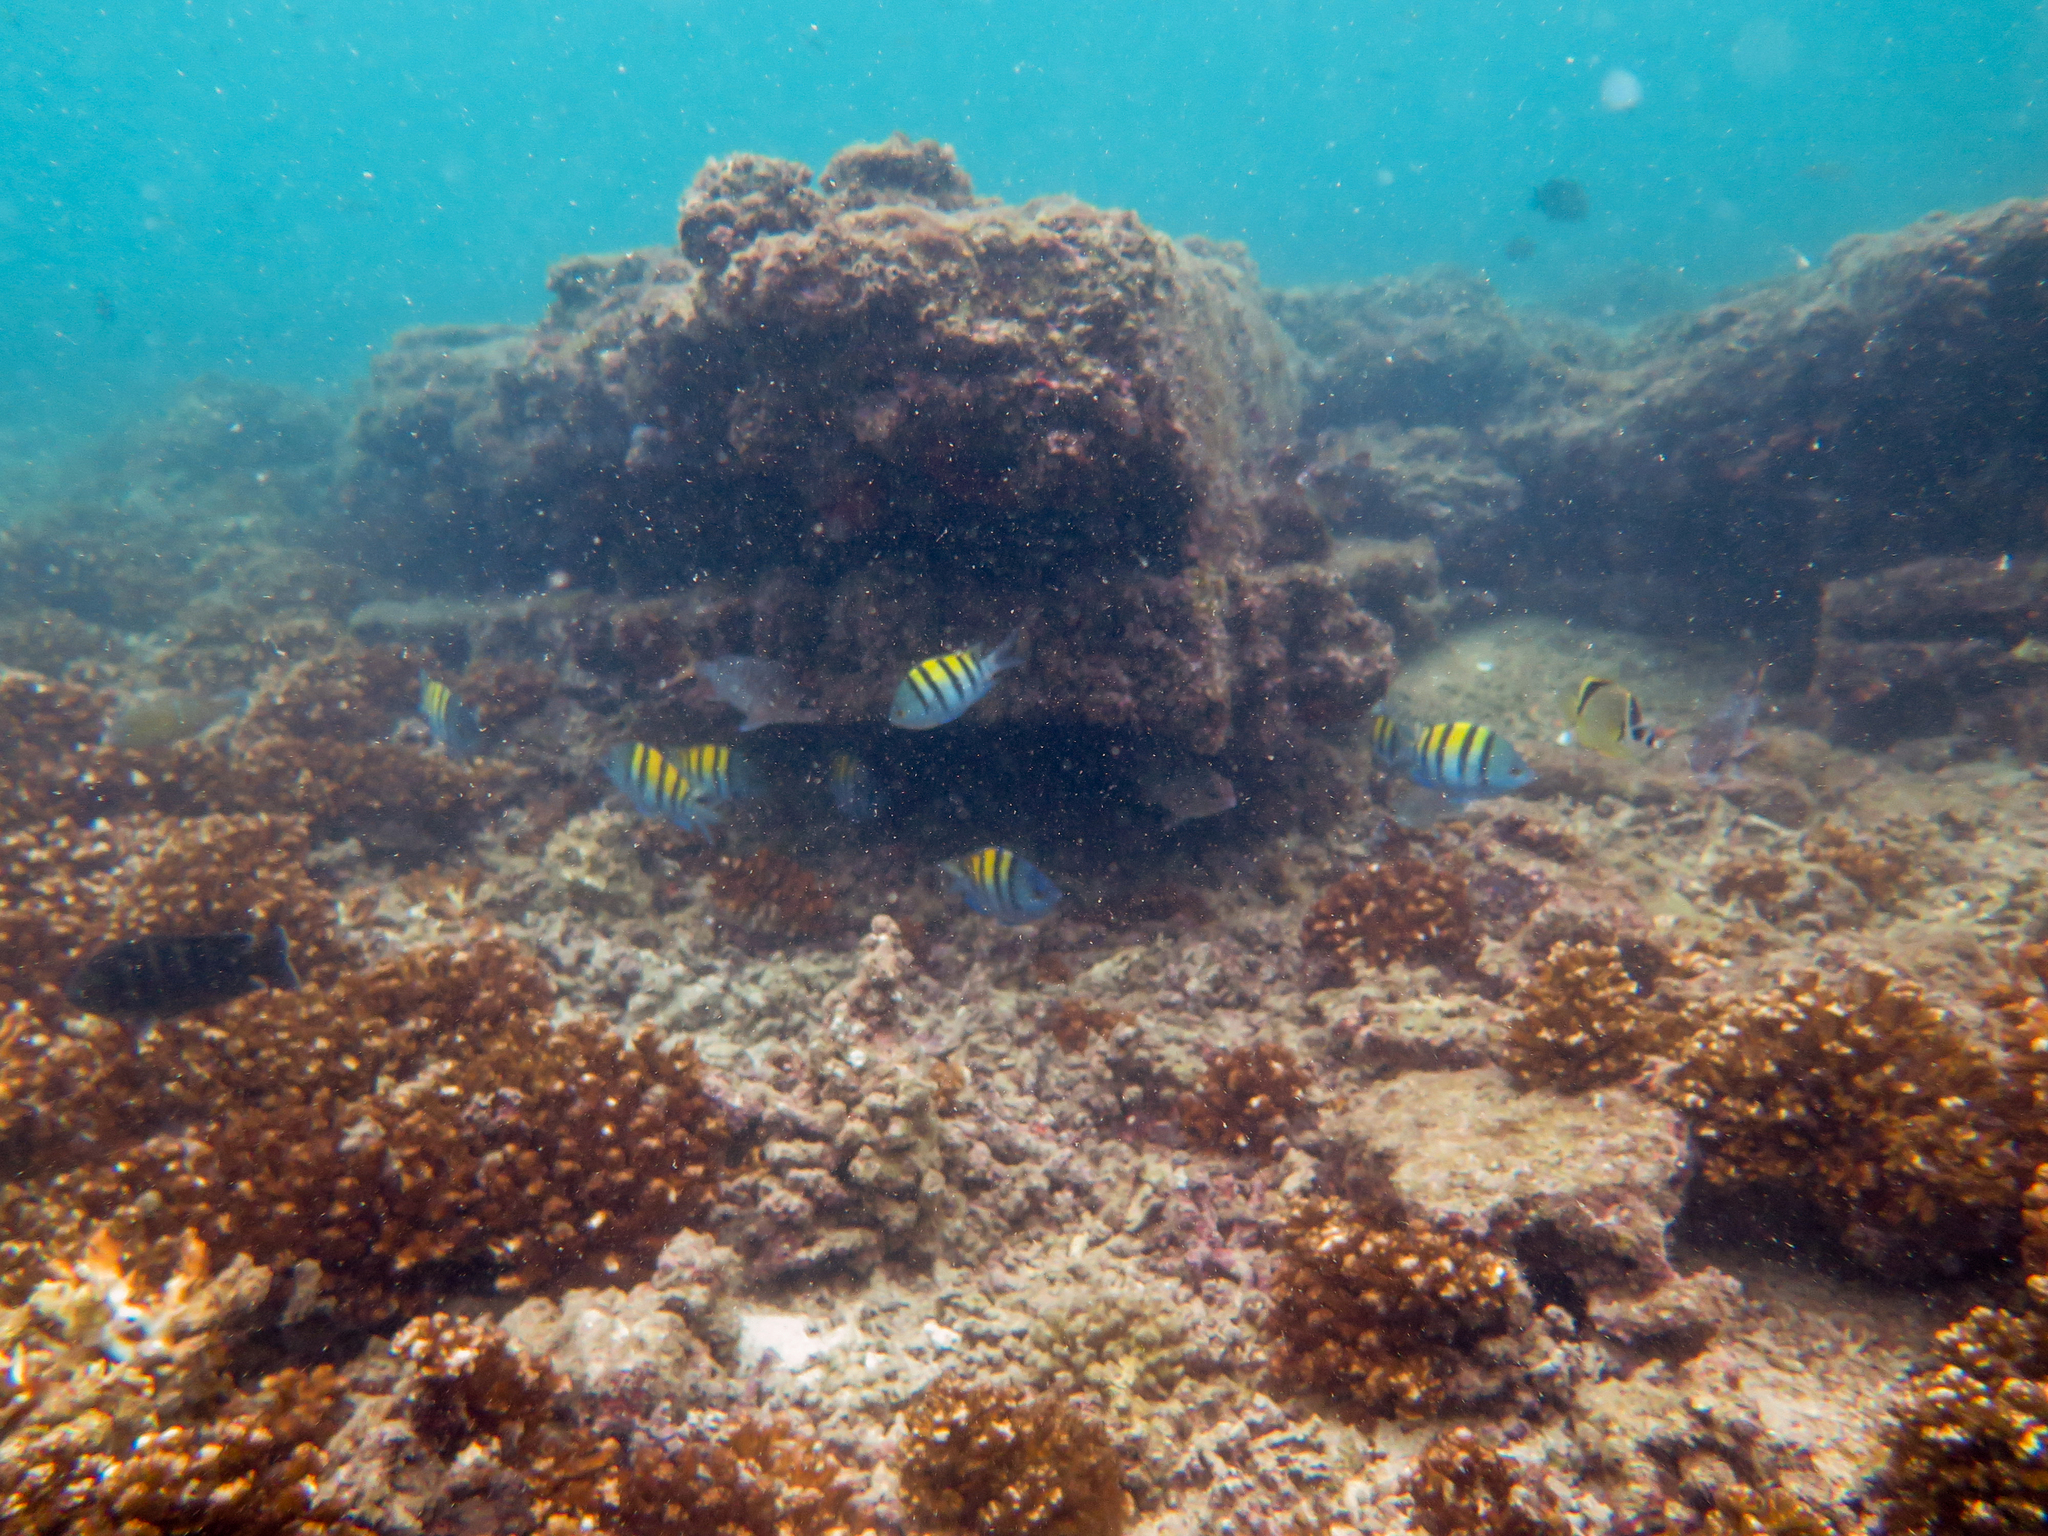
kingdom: Animalia
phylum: Chordata
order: Perciformes
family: Chaetodontidae
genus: Johnrandallia
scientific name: Johnrandallia nigrirostris
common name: Barberfish
